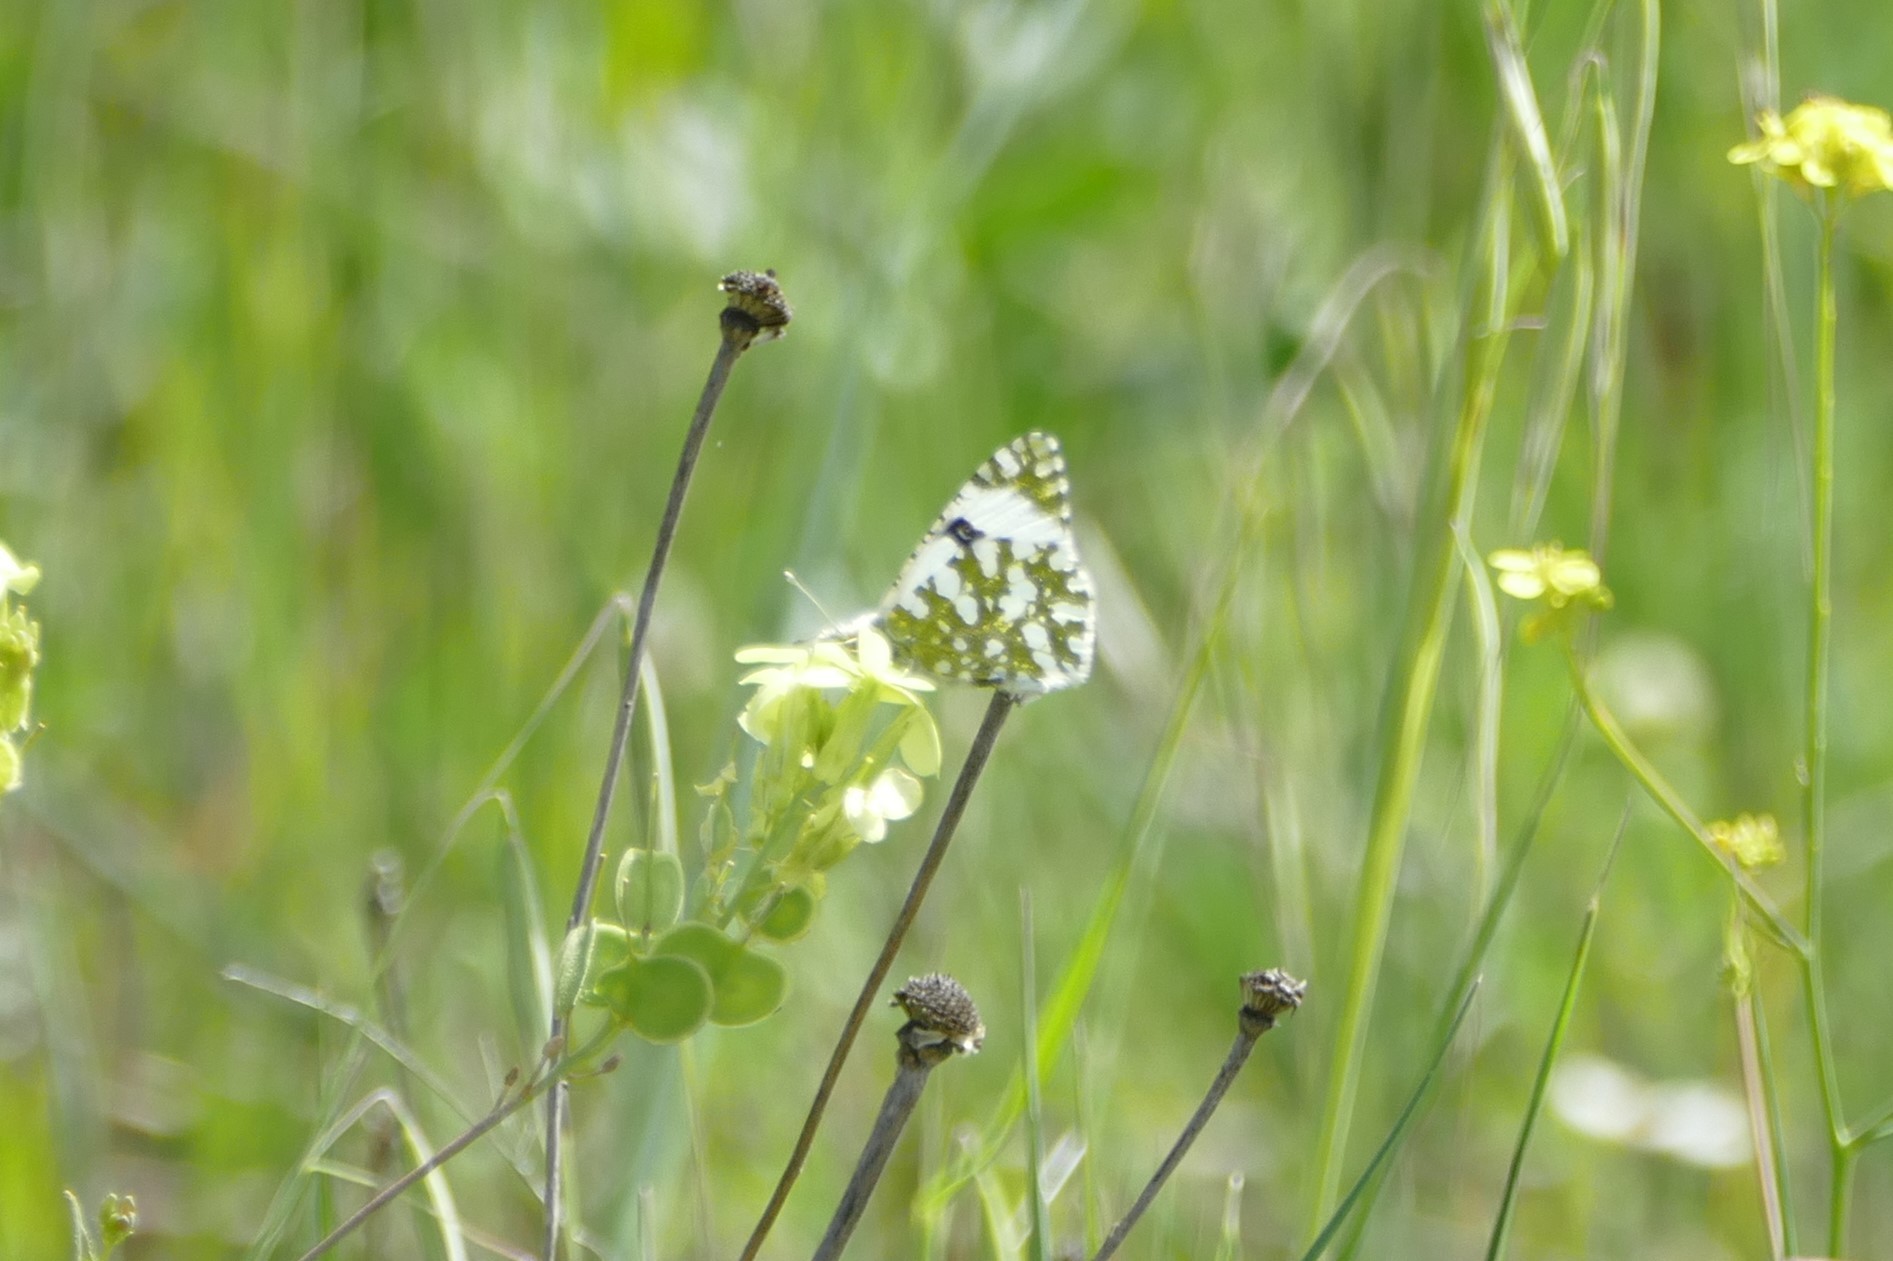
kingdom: Animalia
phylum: Arthropoda
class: Insecta
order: Lepidoptera
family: Pieridae
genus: Euchloe
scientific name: Euchloe crameri
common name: Western dappled white
